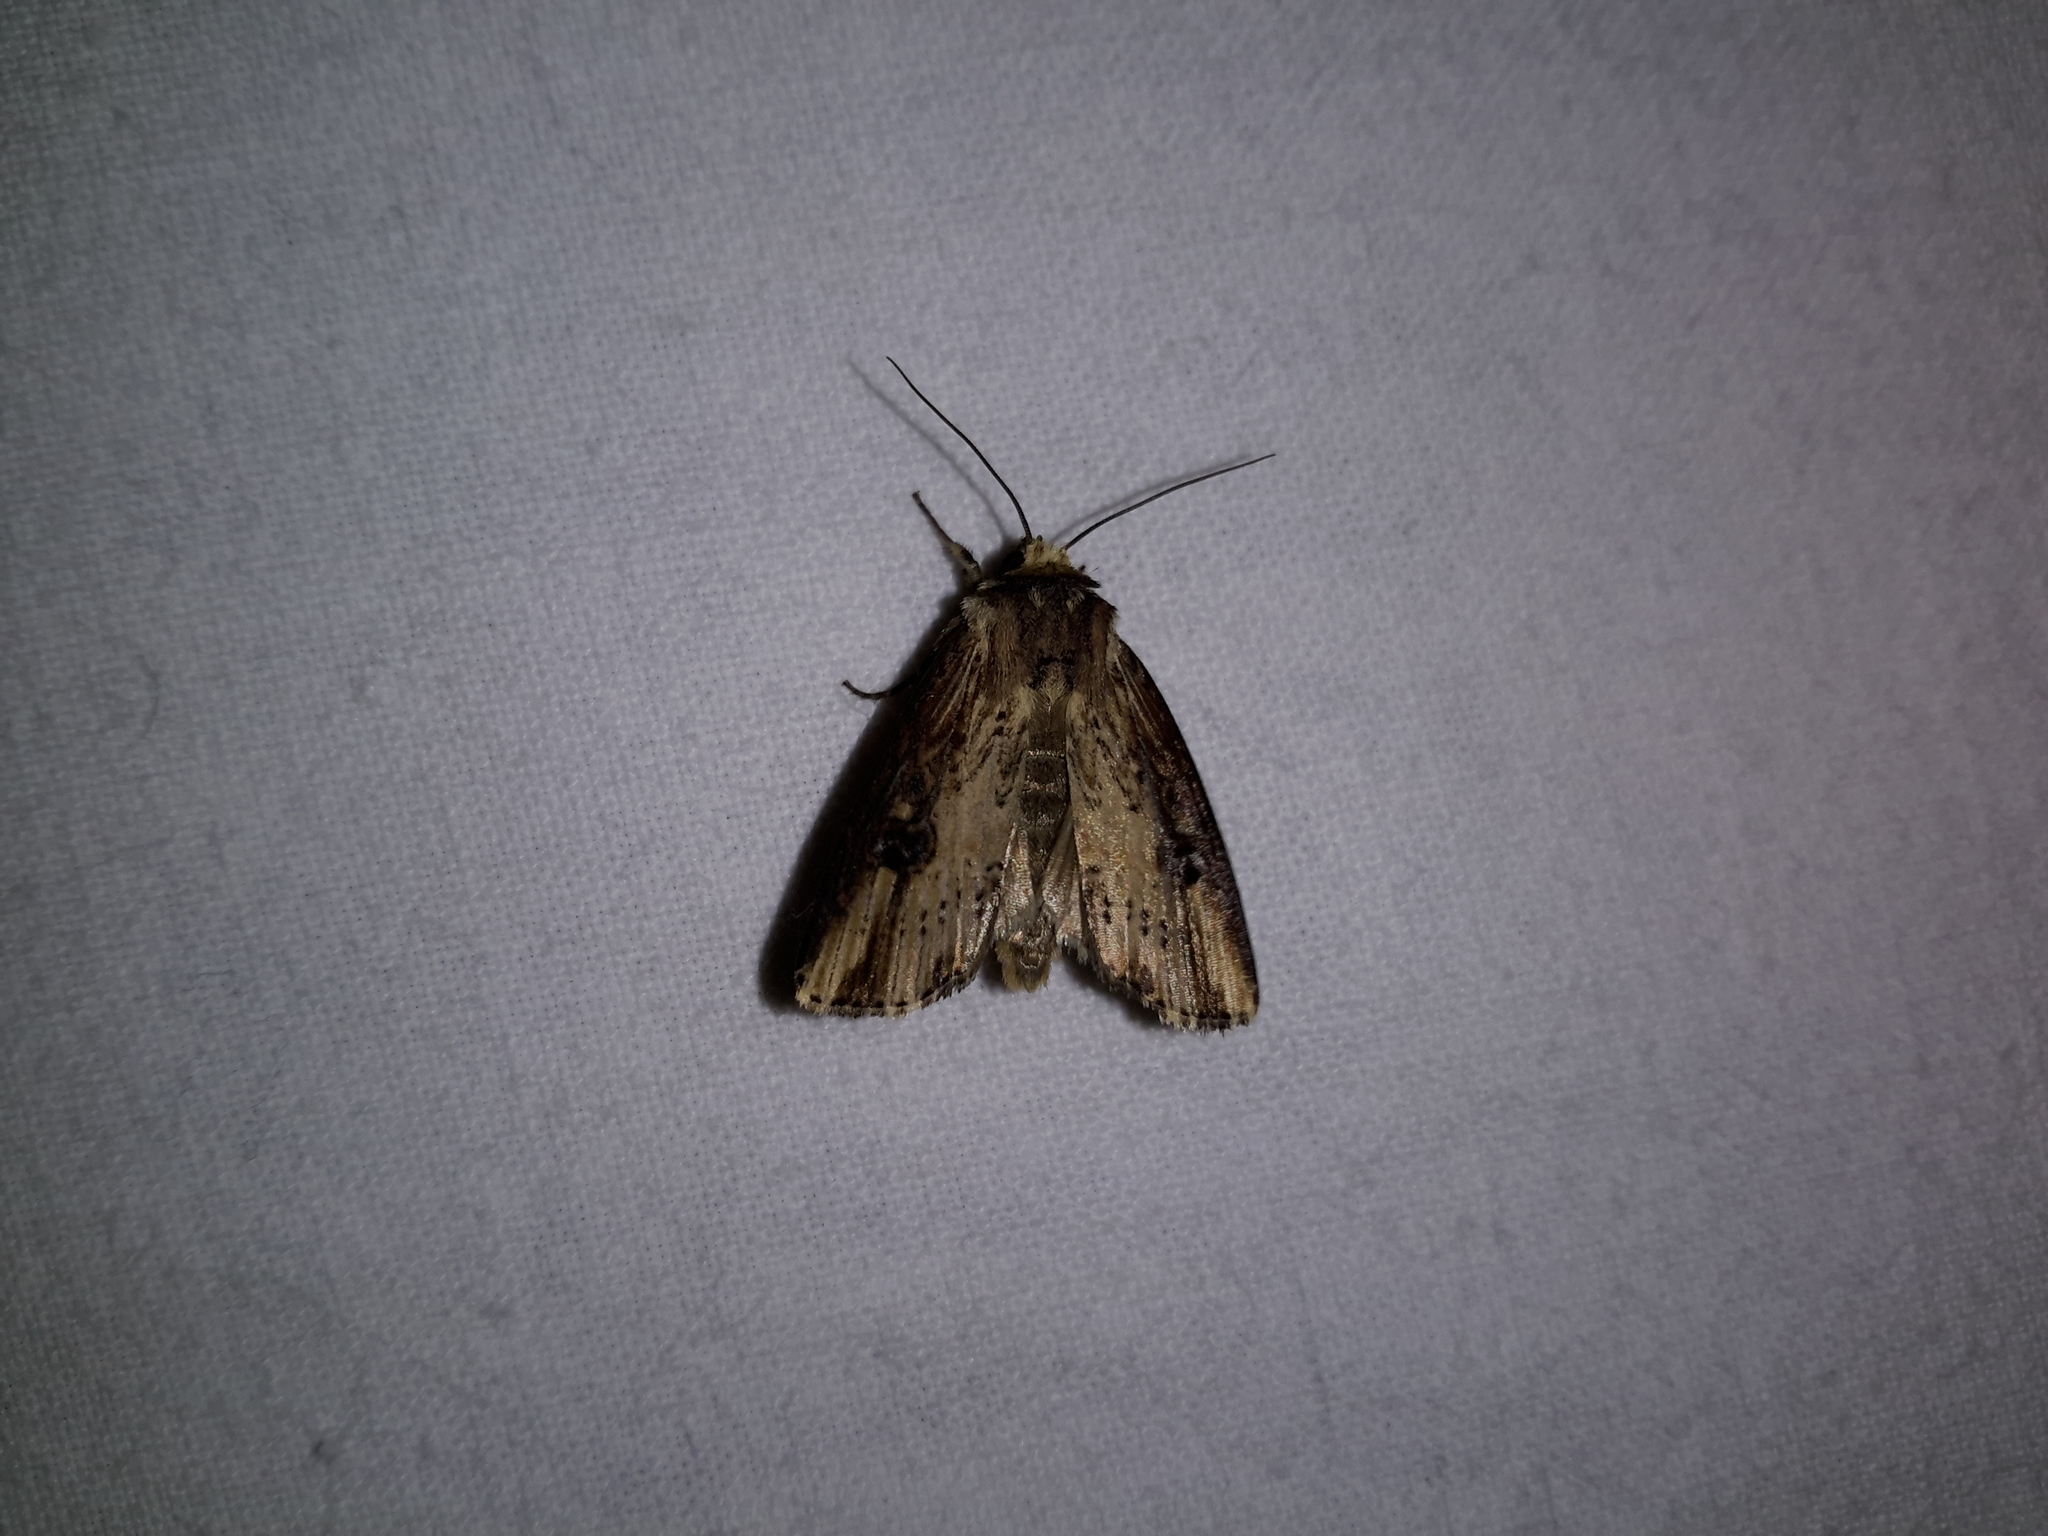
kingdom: Animalia
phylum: Arthropoda
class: Insecta
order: Lepidoptera
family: Noctuidae
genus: Axylia
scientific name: Axylia putris
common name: Flame
